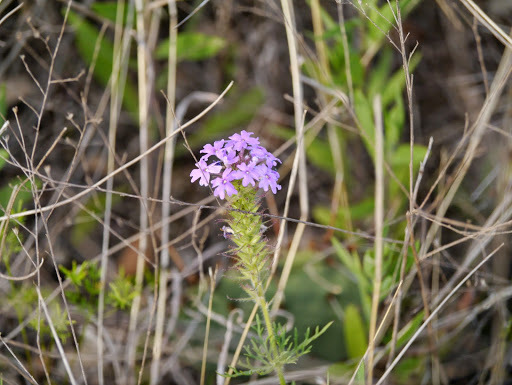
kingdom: Plantae
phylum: Tracheophyta
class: Magnoliopsida
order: Lamiales
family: Verbenaceae
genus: Verbena
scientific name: Verbena bipinnatifida
